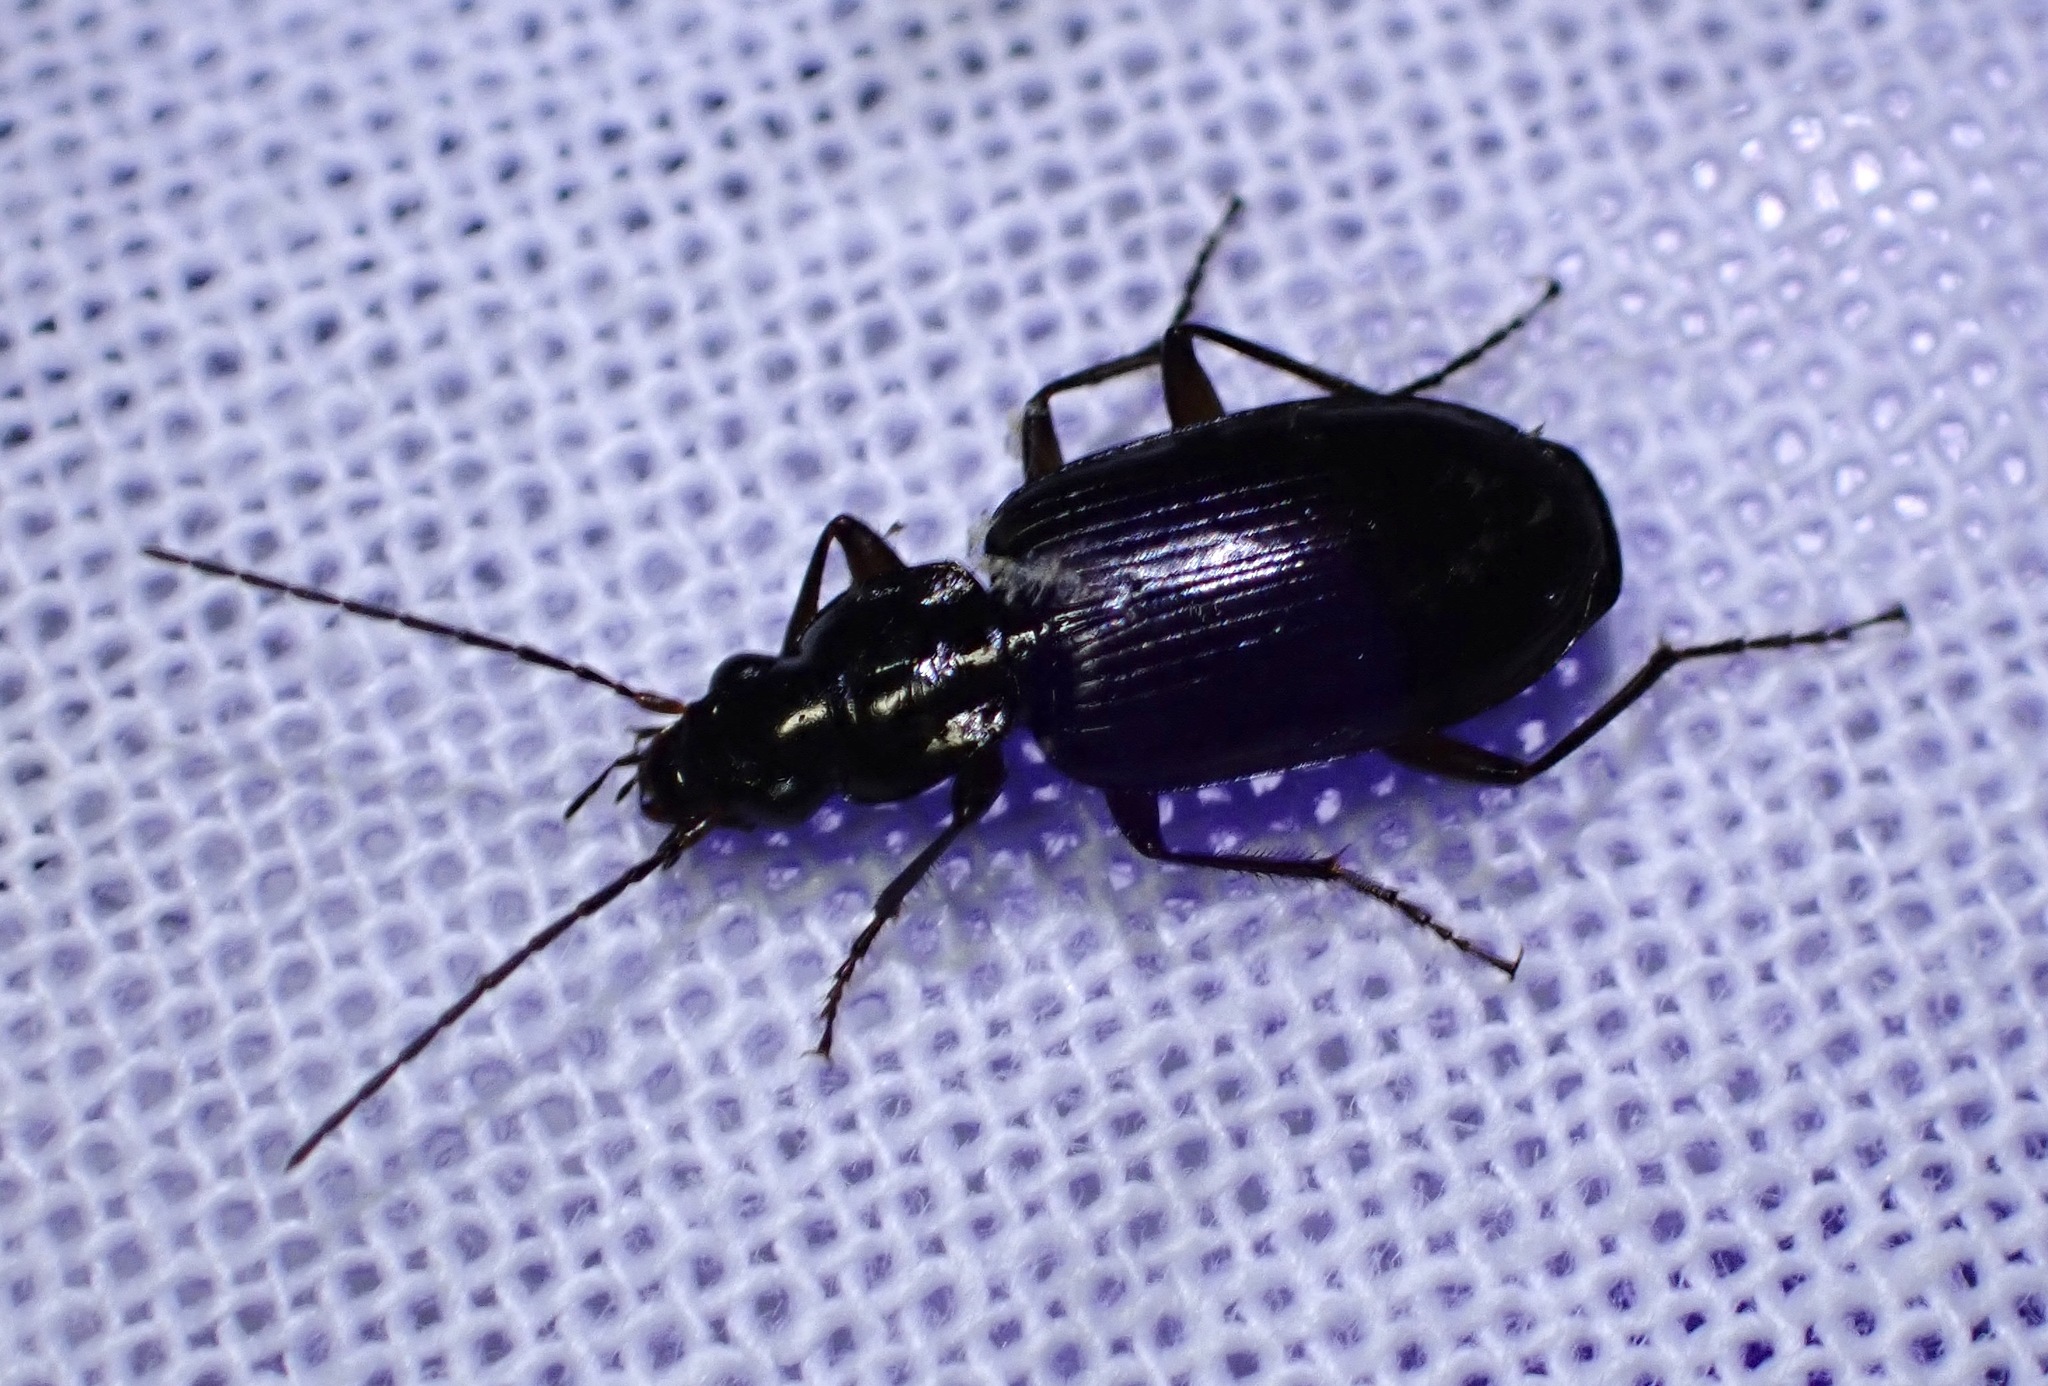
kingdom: Animalia
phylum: Arthropoda
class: Insecta
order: Coleoptera
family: Carabidae
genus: Agonum
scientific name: Agonum decorum
